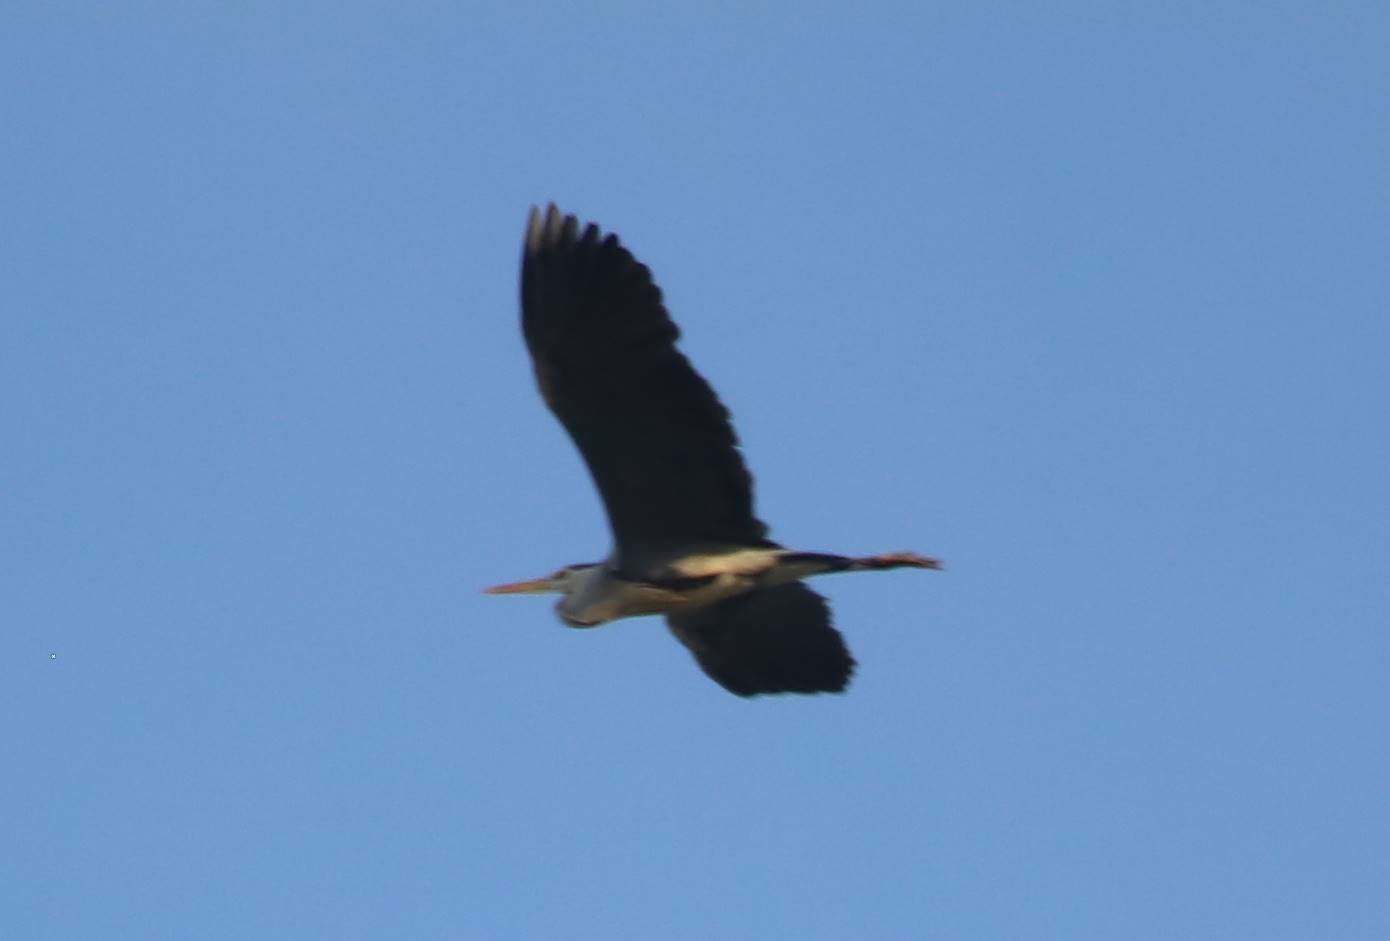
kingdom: Animalia
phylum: Chordata
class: Aves
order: Pelecaniformes
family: Ardeidae
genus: Ardea
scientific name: Ardea cinerea
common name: Grey heron
